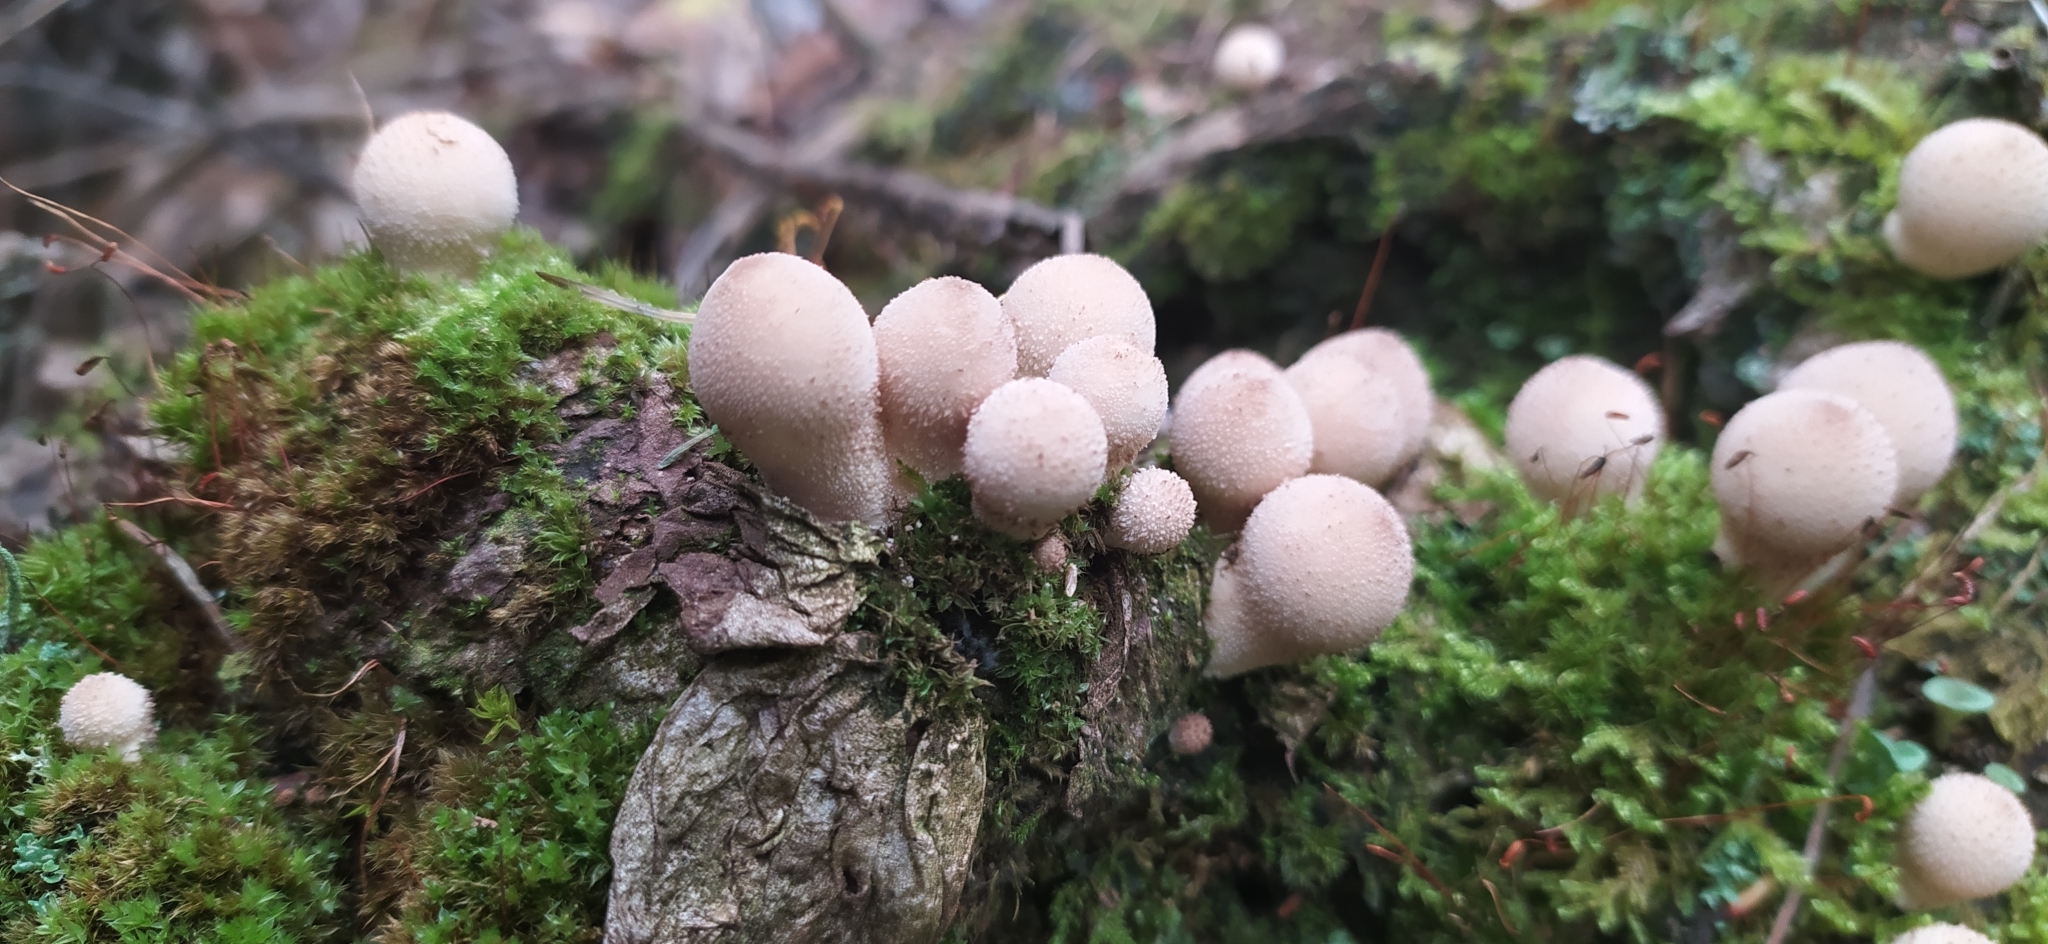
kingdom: Fungi
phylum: Basidiomycota
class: Agaricomycetes
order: Agaricales
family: Lycoperdaceae
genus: Apioperdon
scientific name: Apioperdon pyriforme
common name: Pear-shaped puffball
